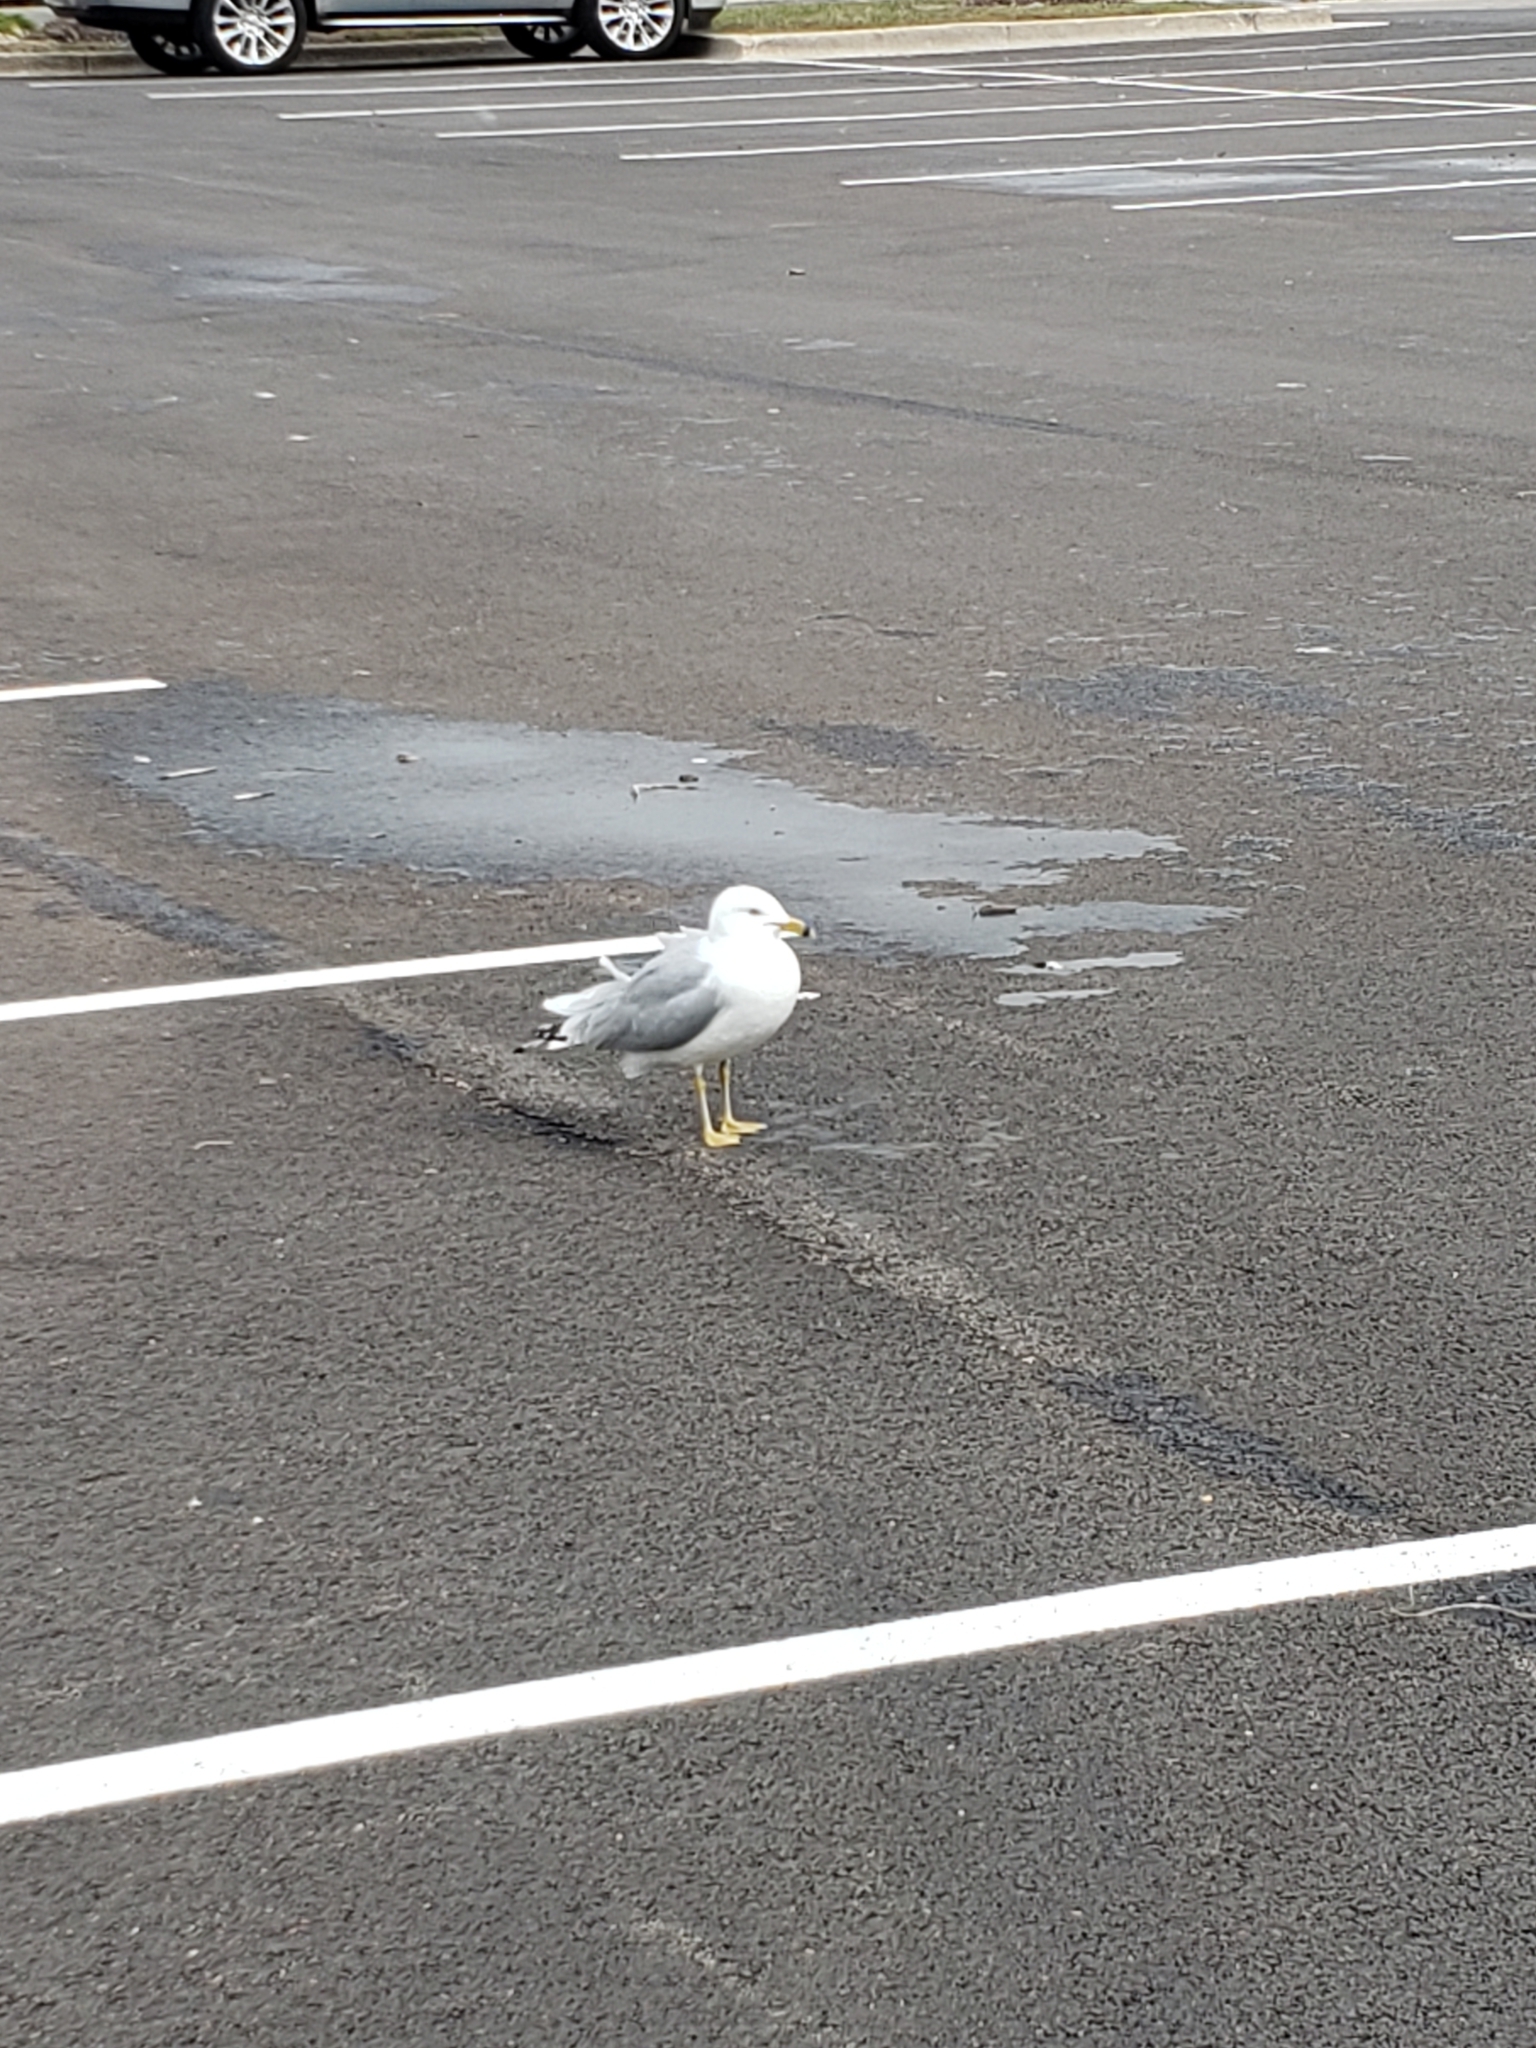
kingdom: Animalia
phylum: Chordata
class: Aves
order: Charadriiformes
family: Laridae
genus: Larus
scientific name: Larus delawarensis
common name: Ring-billed gull
